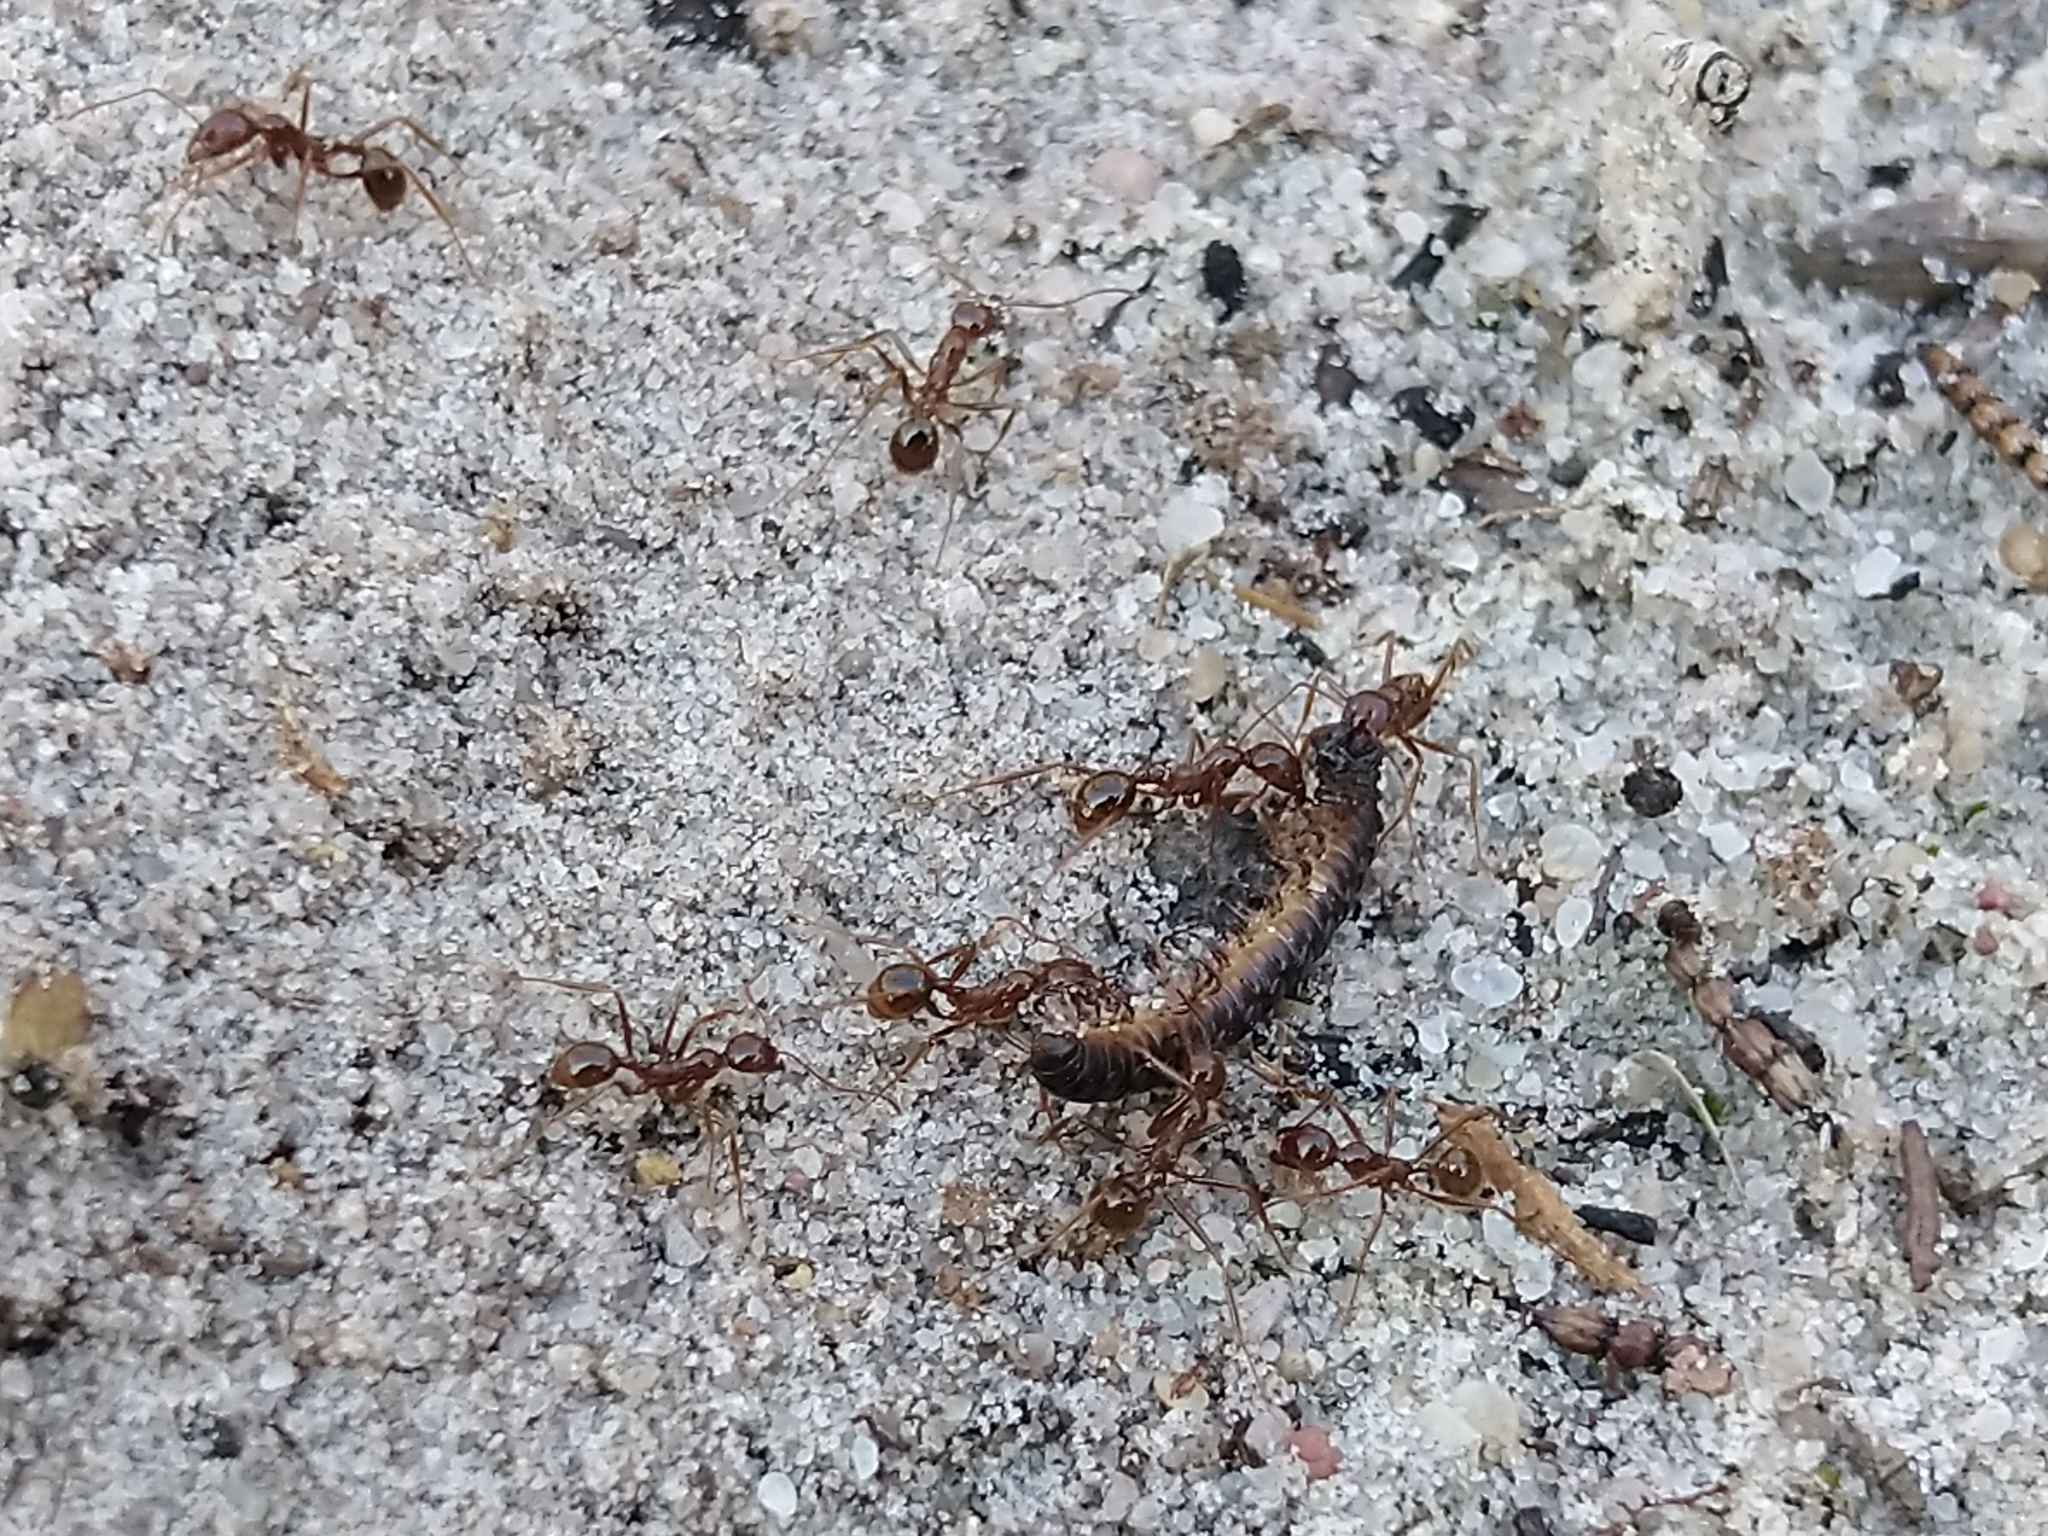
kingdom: Animalia
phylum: Arthropoda
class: Insecta
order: Hymenoptera
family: Formicidae
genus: Aphaenogaster
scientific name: Aphaenogaster longiceps
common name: Funnel ant
